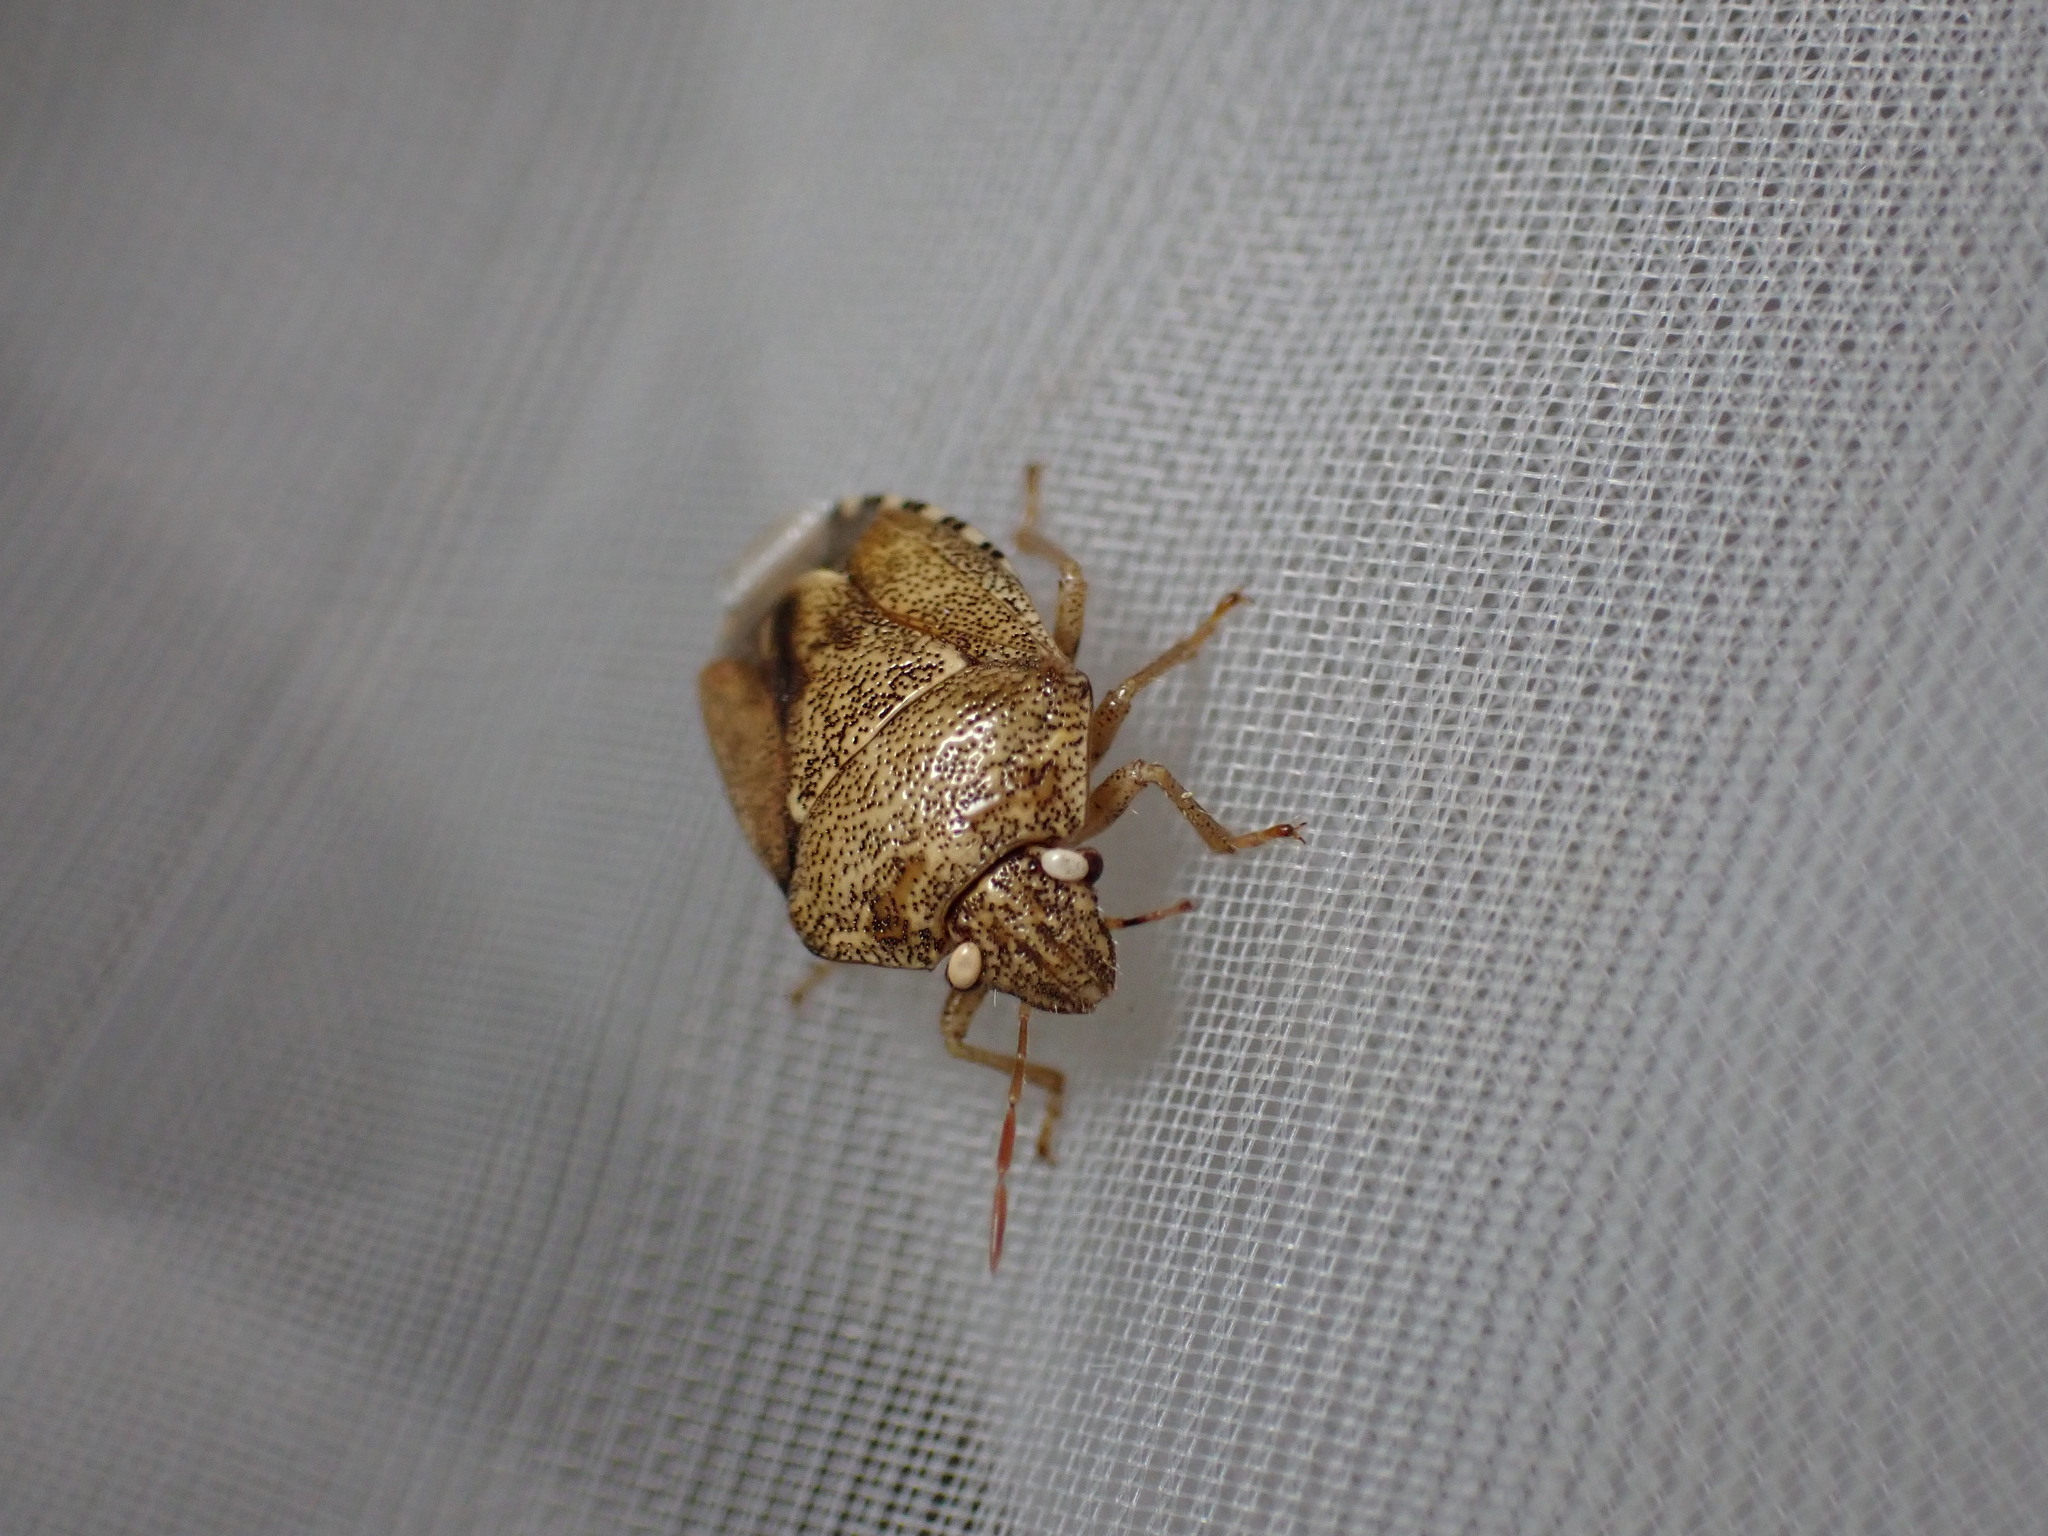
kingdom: Animalia
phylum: Arthropoda
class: Insecta
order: Hemiptera
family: Pentatomidae
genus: Staria
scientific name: Staria lunata
